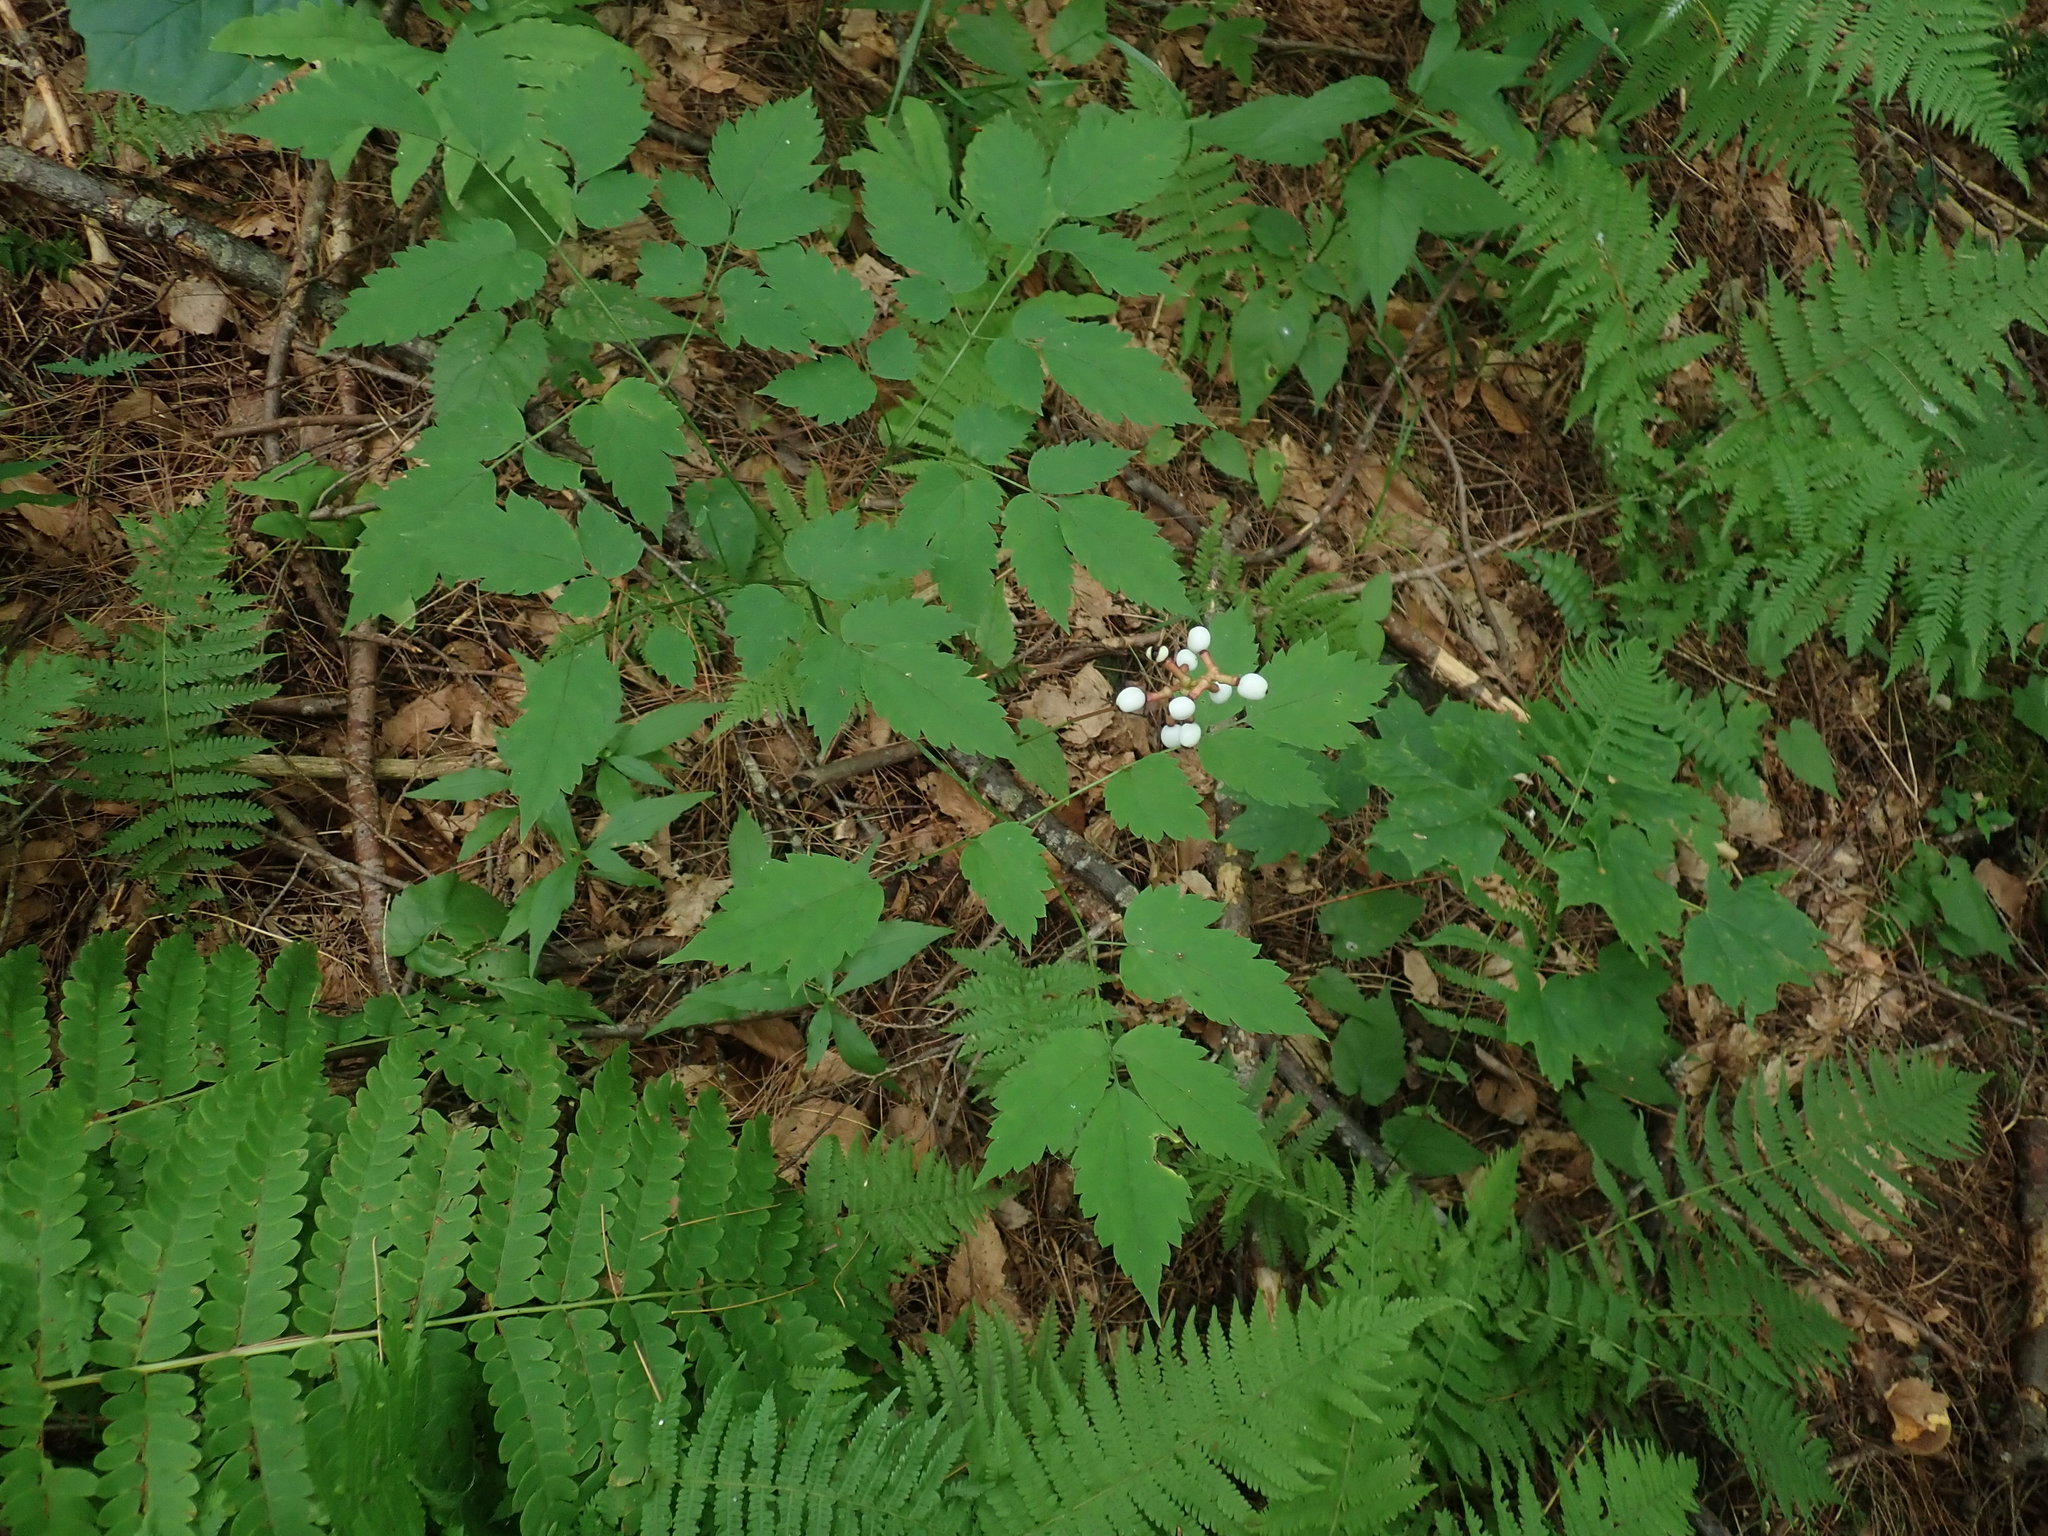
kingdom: Plantae
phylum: Tracheophyta
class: Magnoliopsida
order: Ranunculales
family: Ranunculaceae
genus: Actaea
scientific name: Actaea pachypoda
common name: Doll's-eyes
